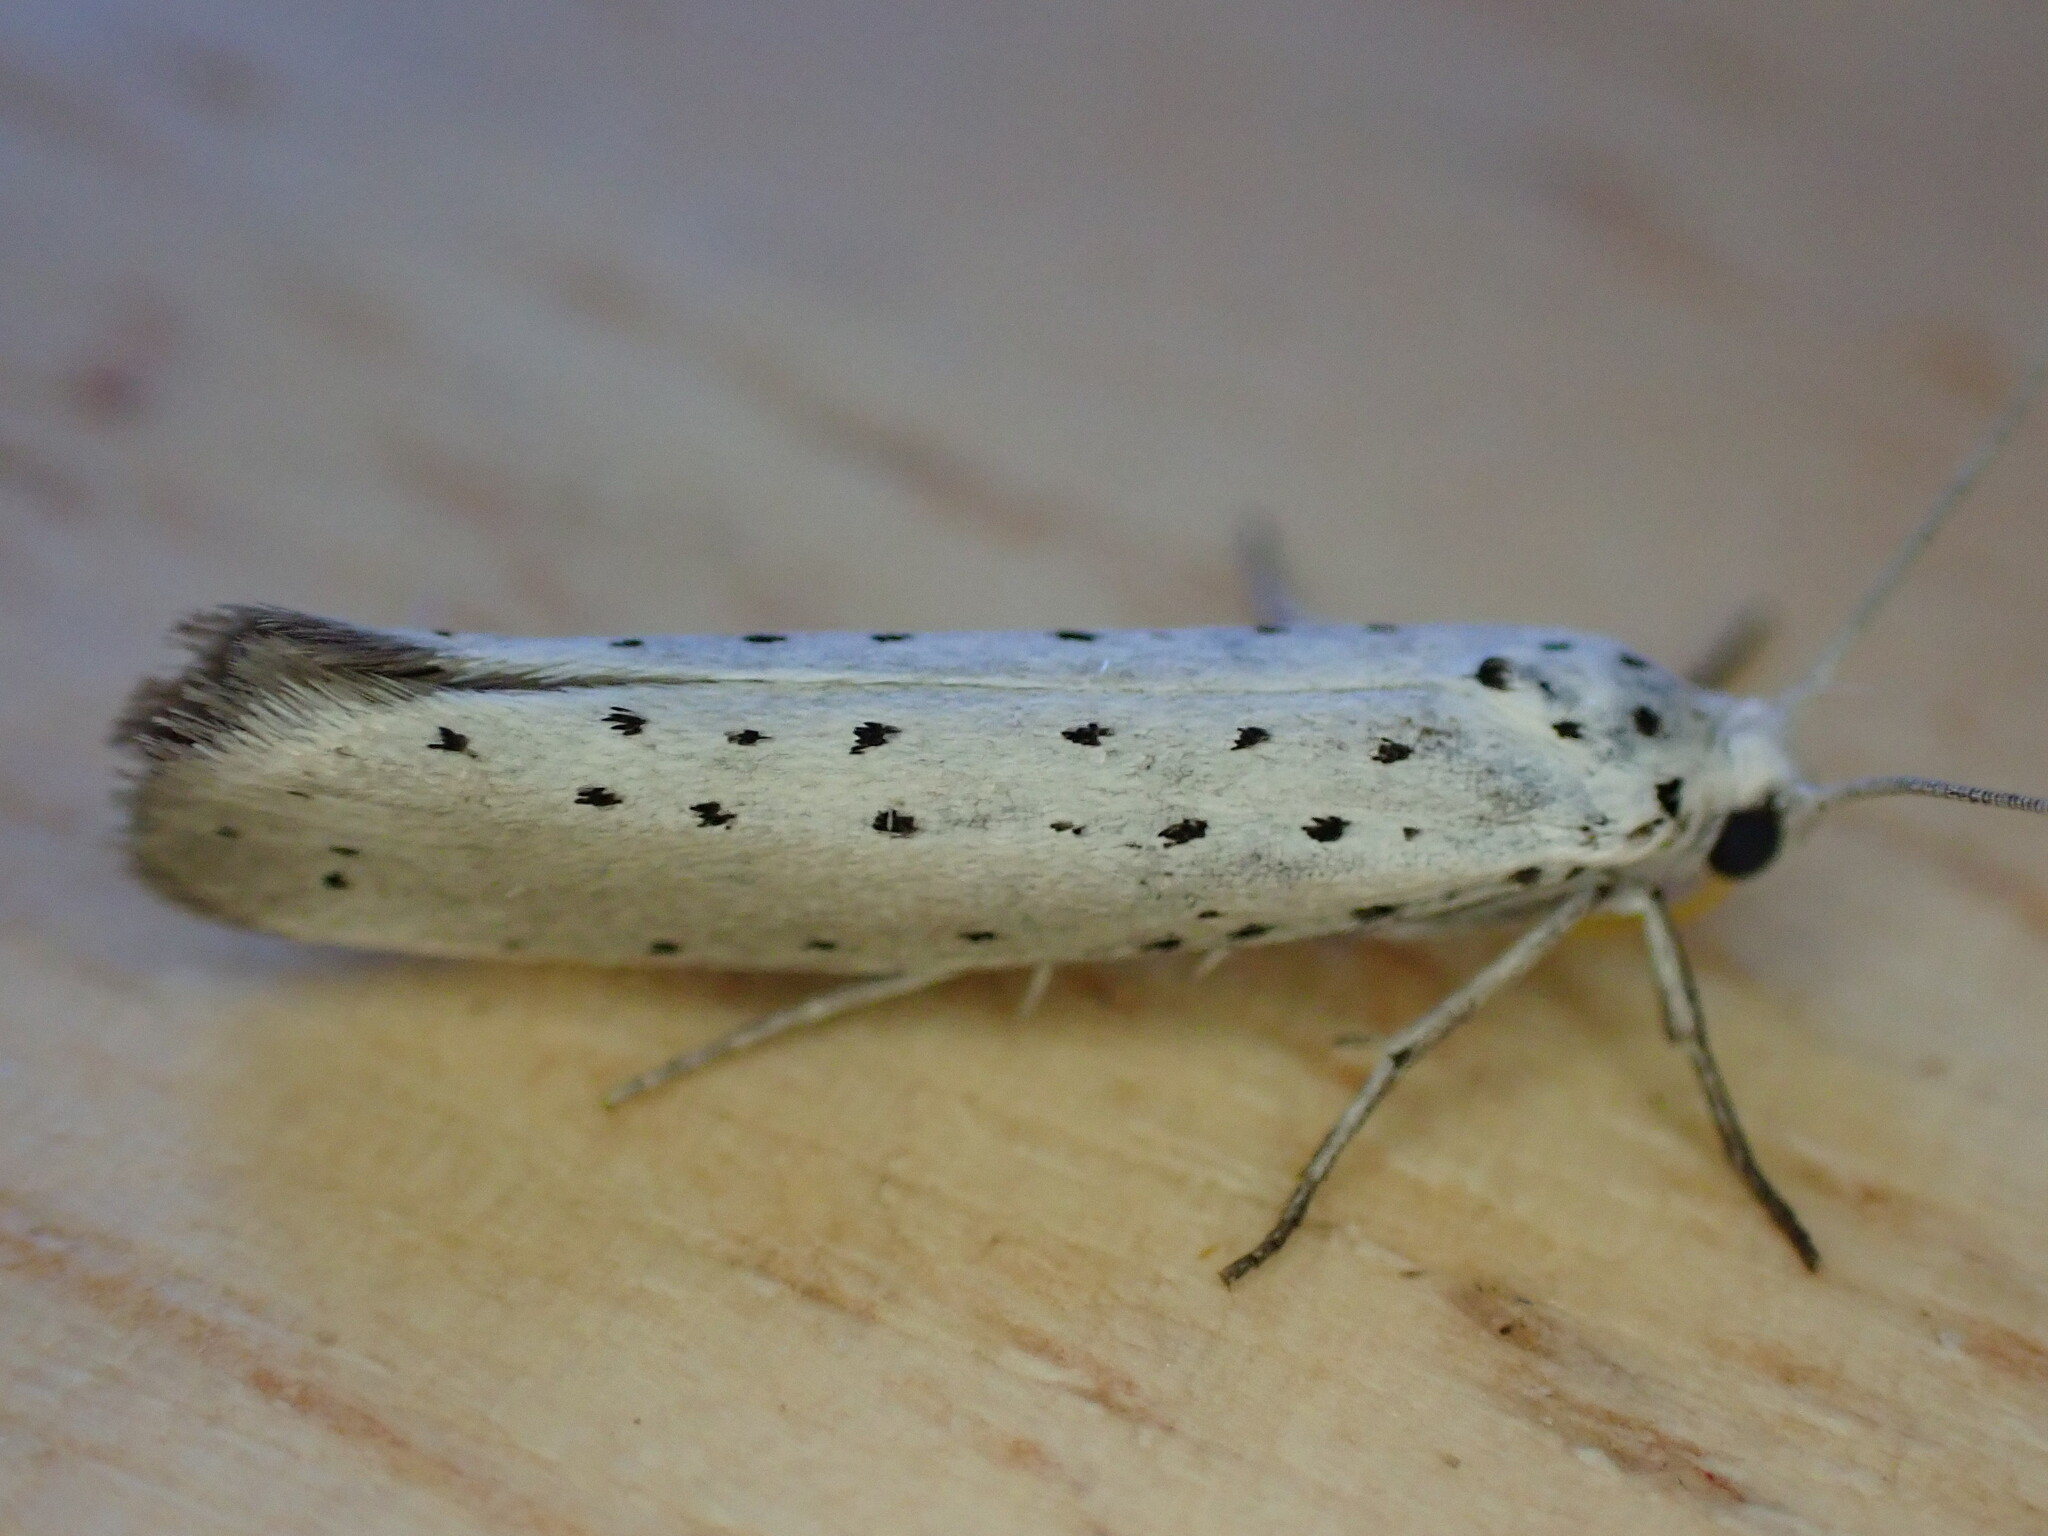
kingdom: Animalia
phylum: Arthropoda
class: Insecta
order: Lepidoptera
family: Yponomeutidae
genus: Yponomeuta
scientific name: Yponomeuta padella
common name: Orchard ermine
